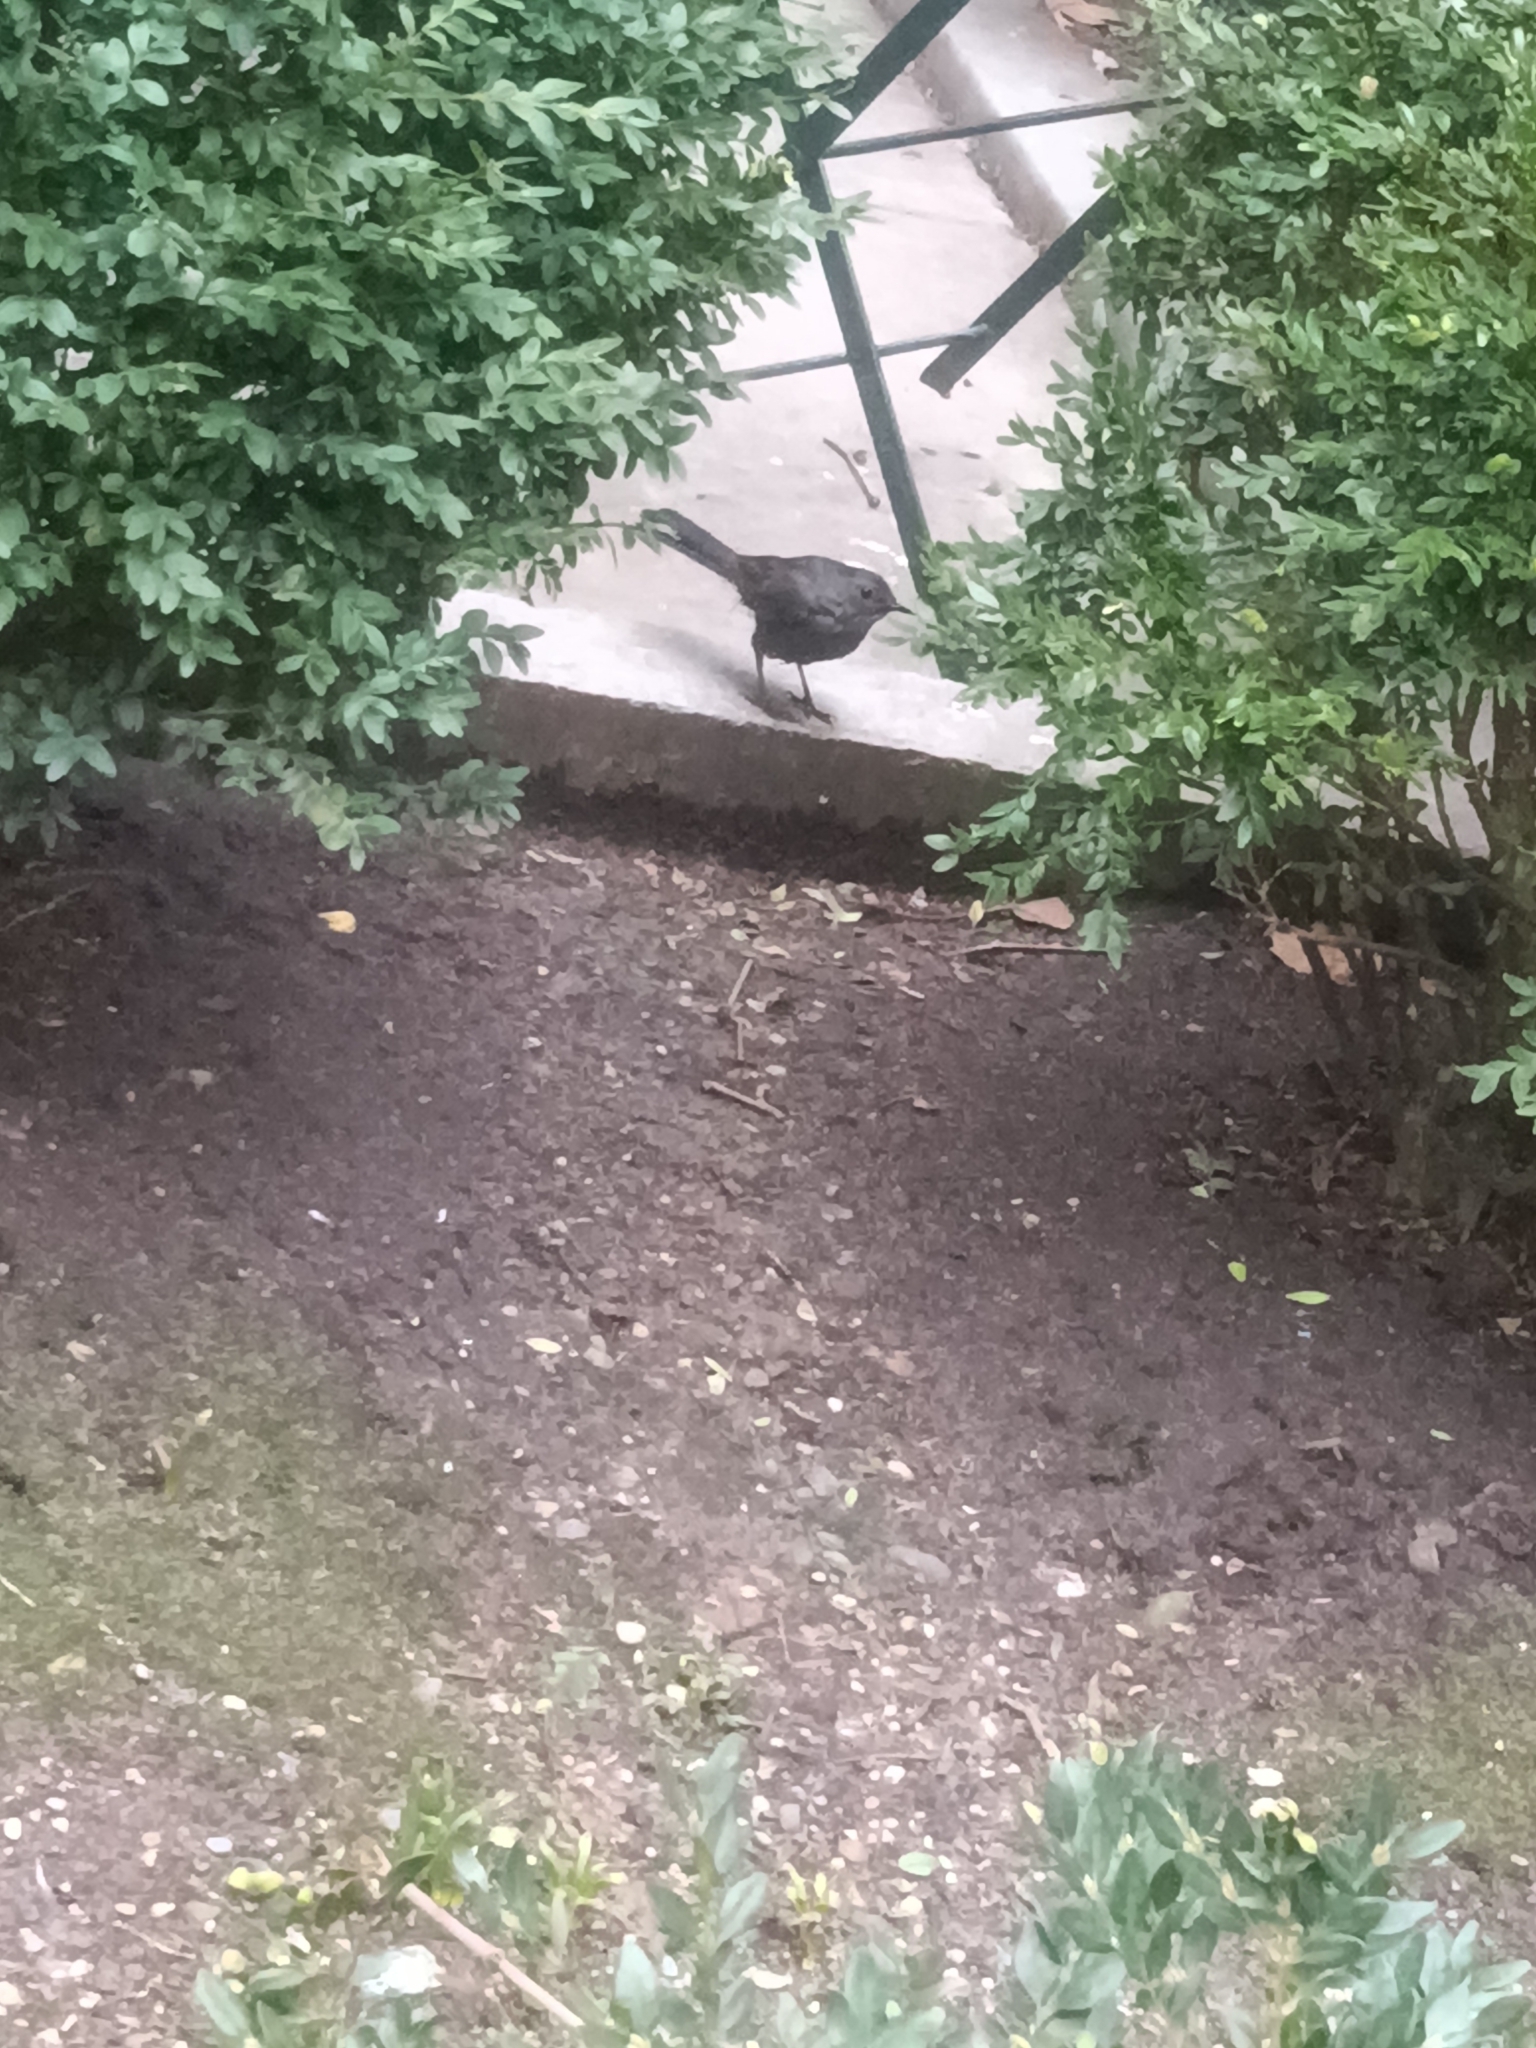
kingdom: Animalia
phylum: Chordata
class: Aves
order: Passeriformes
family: Mimidae
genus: Dumetella
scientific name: Dumetella carolinensis
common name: Gray catbird
